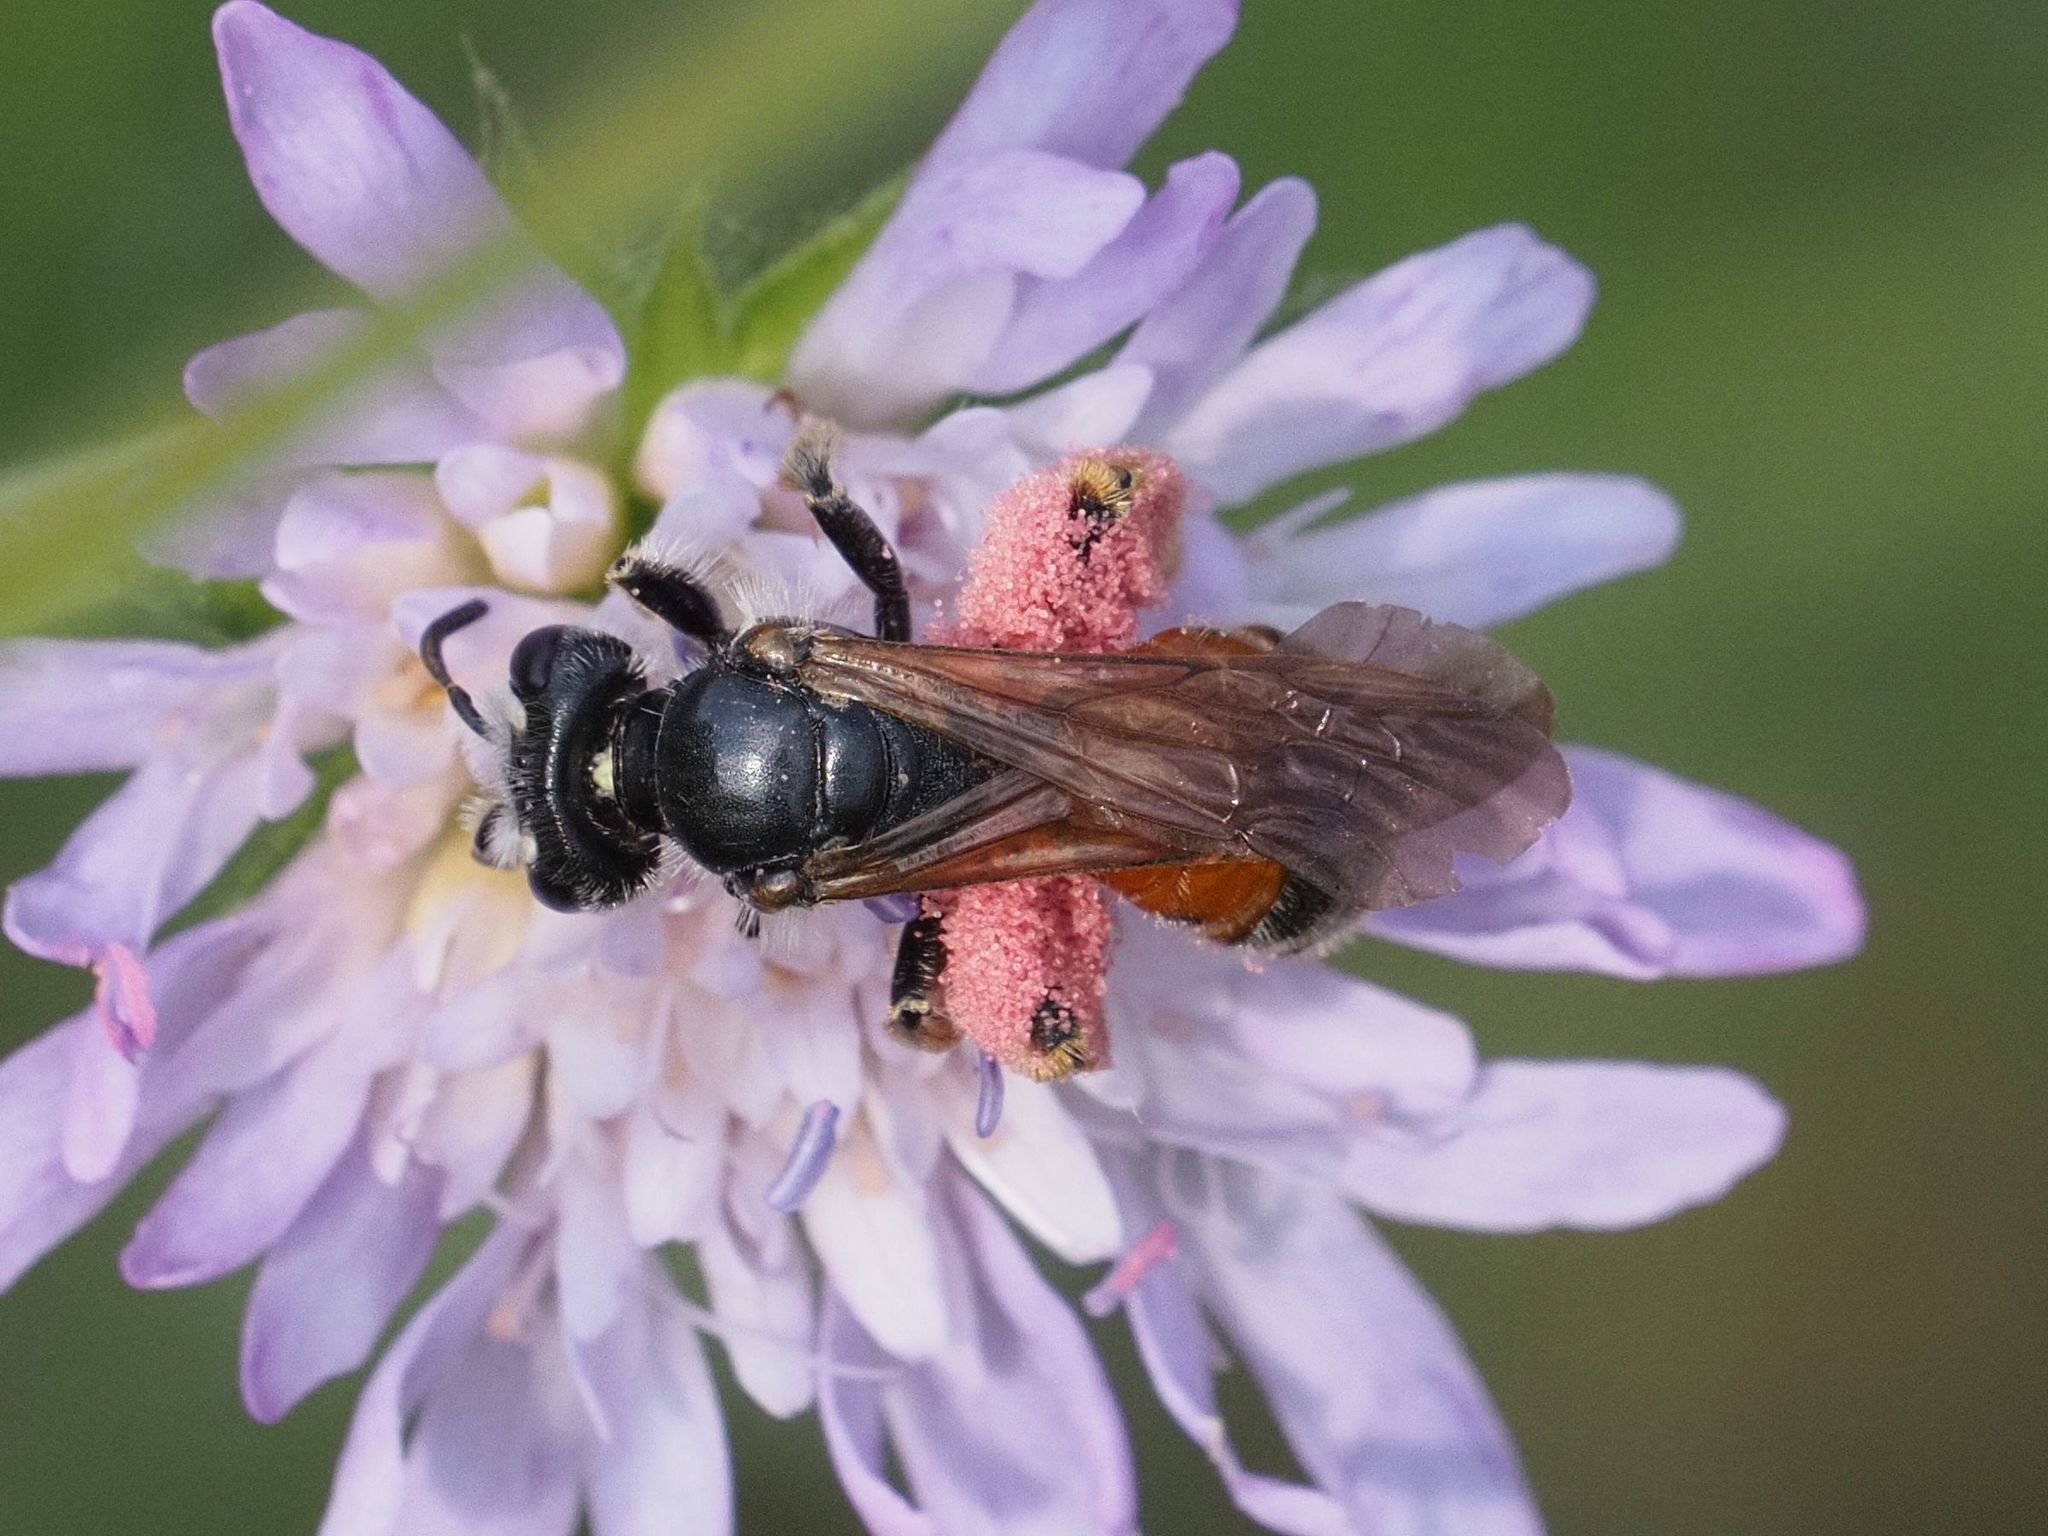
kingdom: Animalia
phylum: Arthropoda
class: Insecta
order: Hymenoptera
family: Andrenidae
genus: Andrena
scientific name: Andrena hattorfiana
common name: Large scabious mining bee
